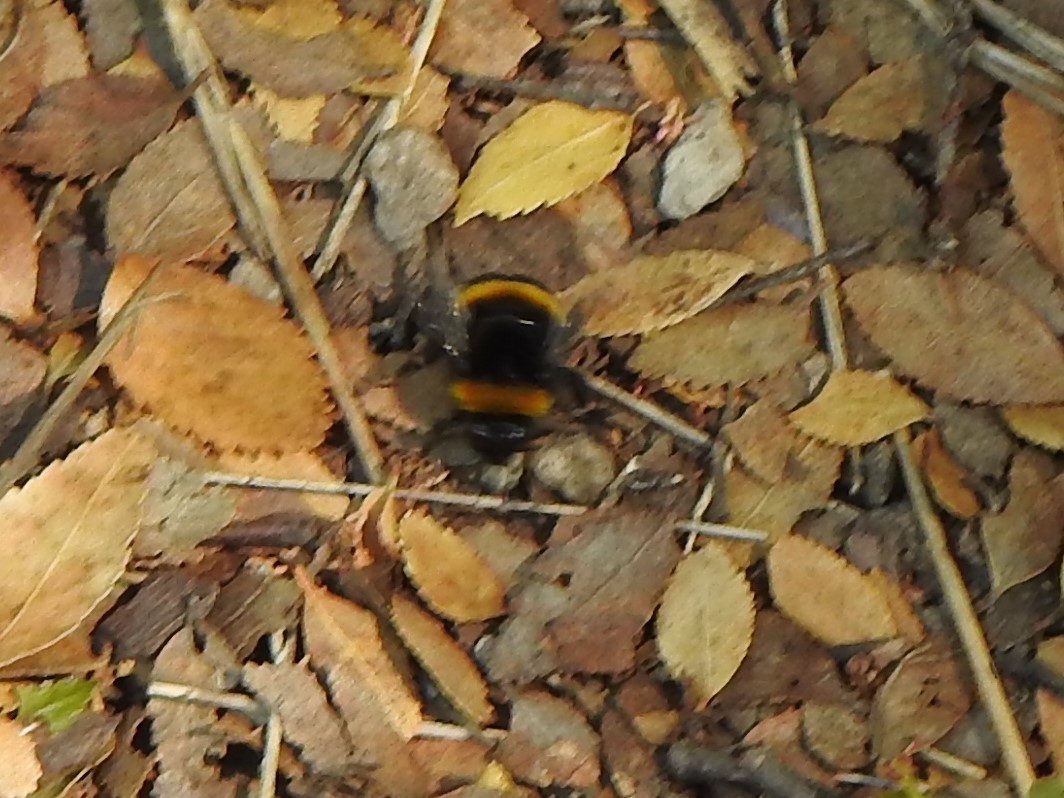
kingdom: Animalia
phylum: Arthropoda
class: Insecta
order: Hymenoptera
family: Apidae
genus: Bombus
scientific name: Bombus terrestris
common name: Buff-tailed bumblebee
